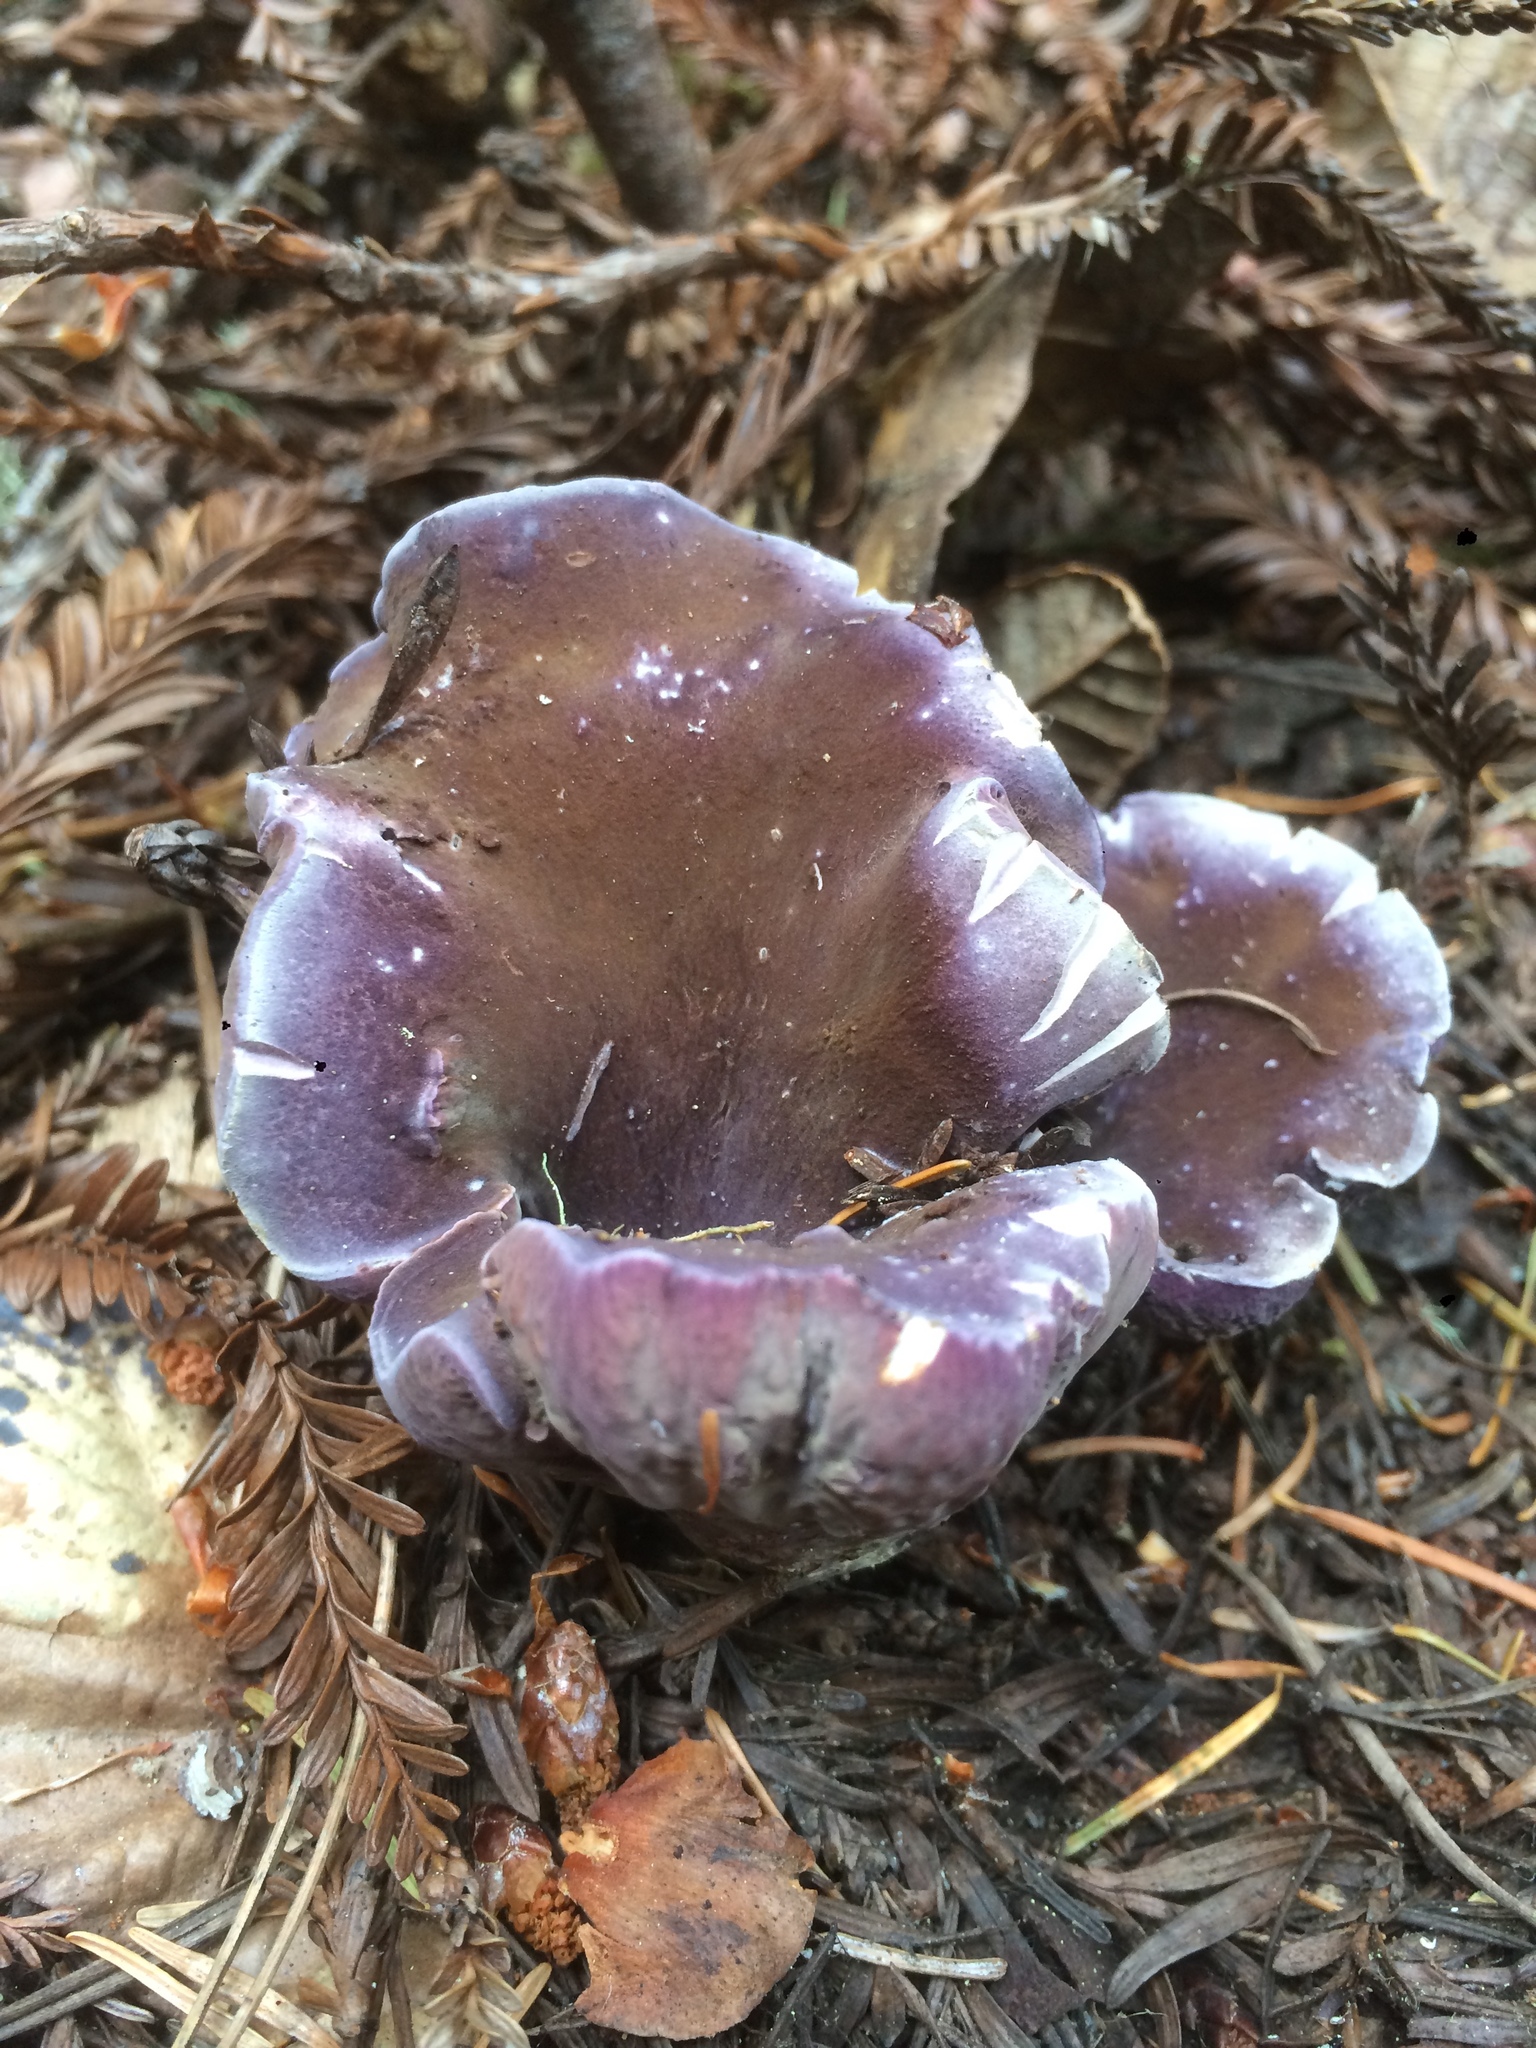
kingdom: Fungi
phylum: Basidiomycota
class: Agaricomycetes
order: Gomphales
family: Gomphaceae
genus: Gomphus
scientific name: Gomphus clavatus
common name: Pig's ear
